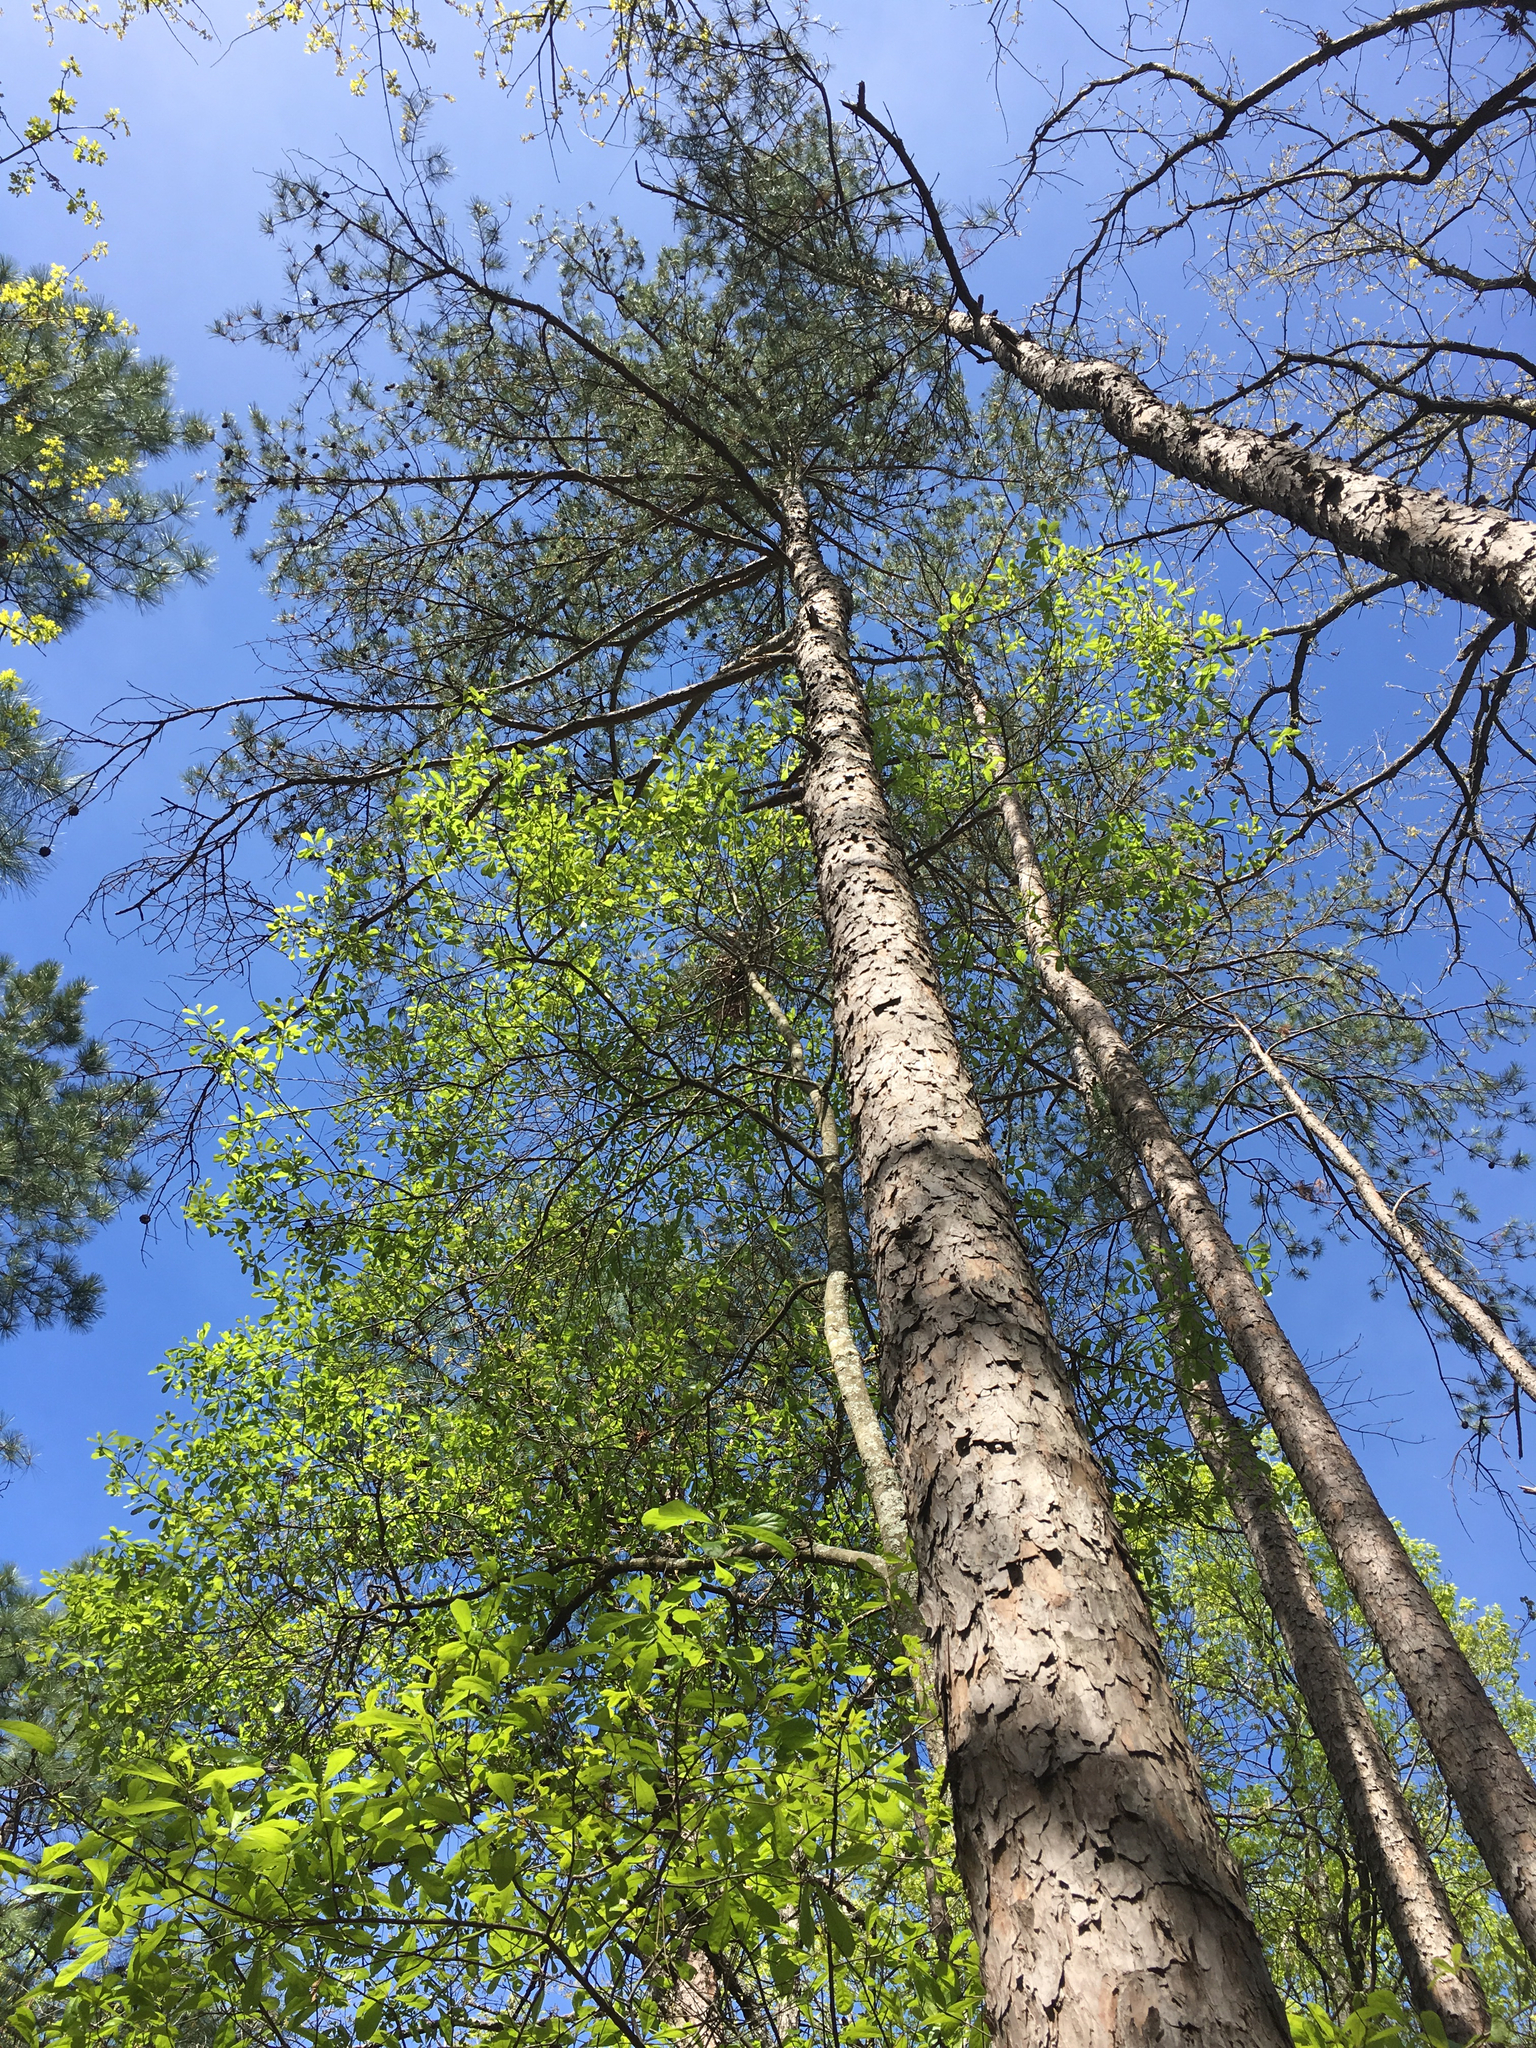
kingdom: Plantae
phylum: Tracheophyta
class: Pinopsida
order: Pinales
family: Pinaceae
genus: Pinus
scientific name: Pinus echinata
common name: Shortleaf pine
